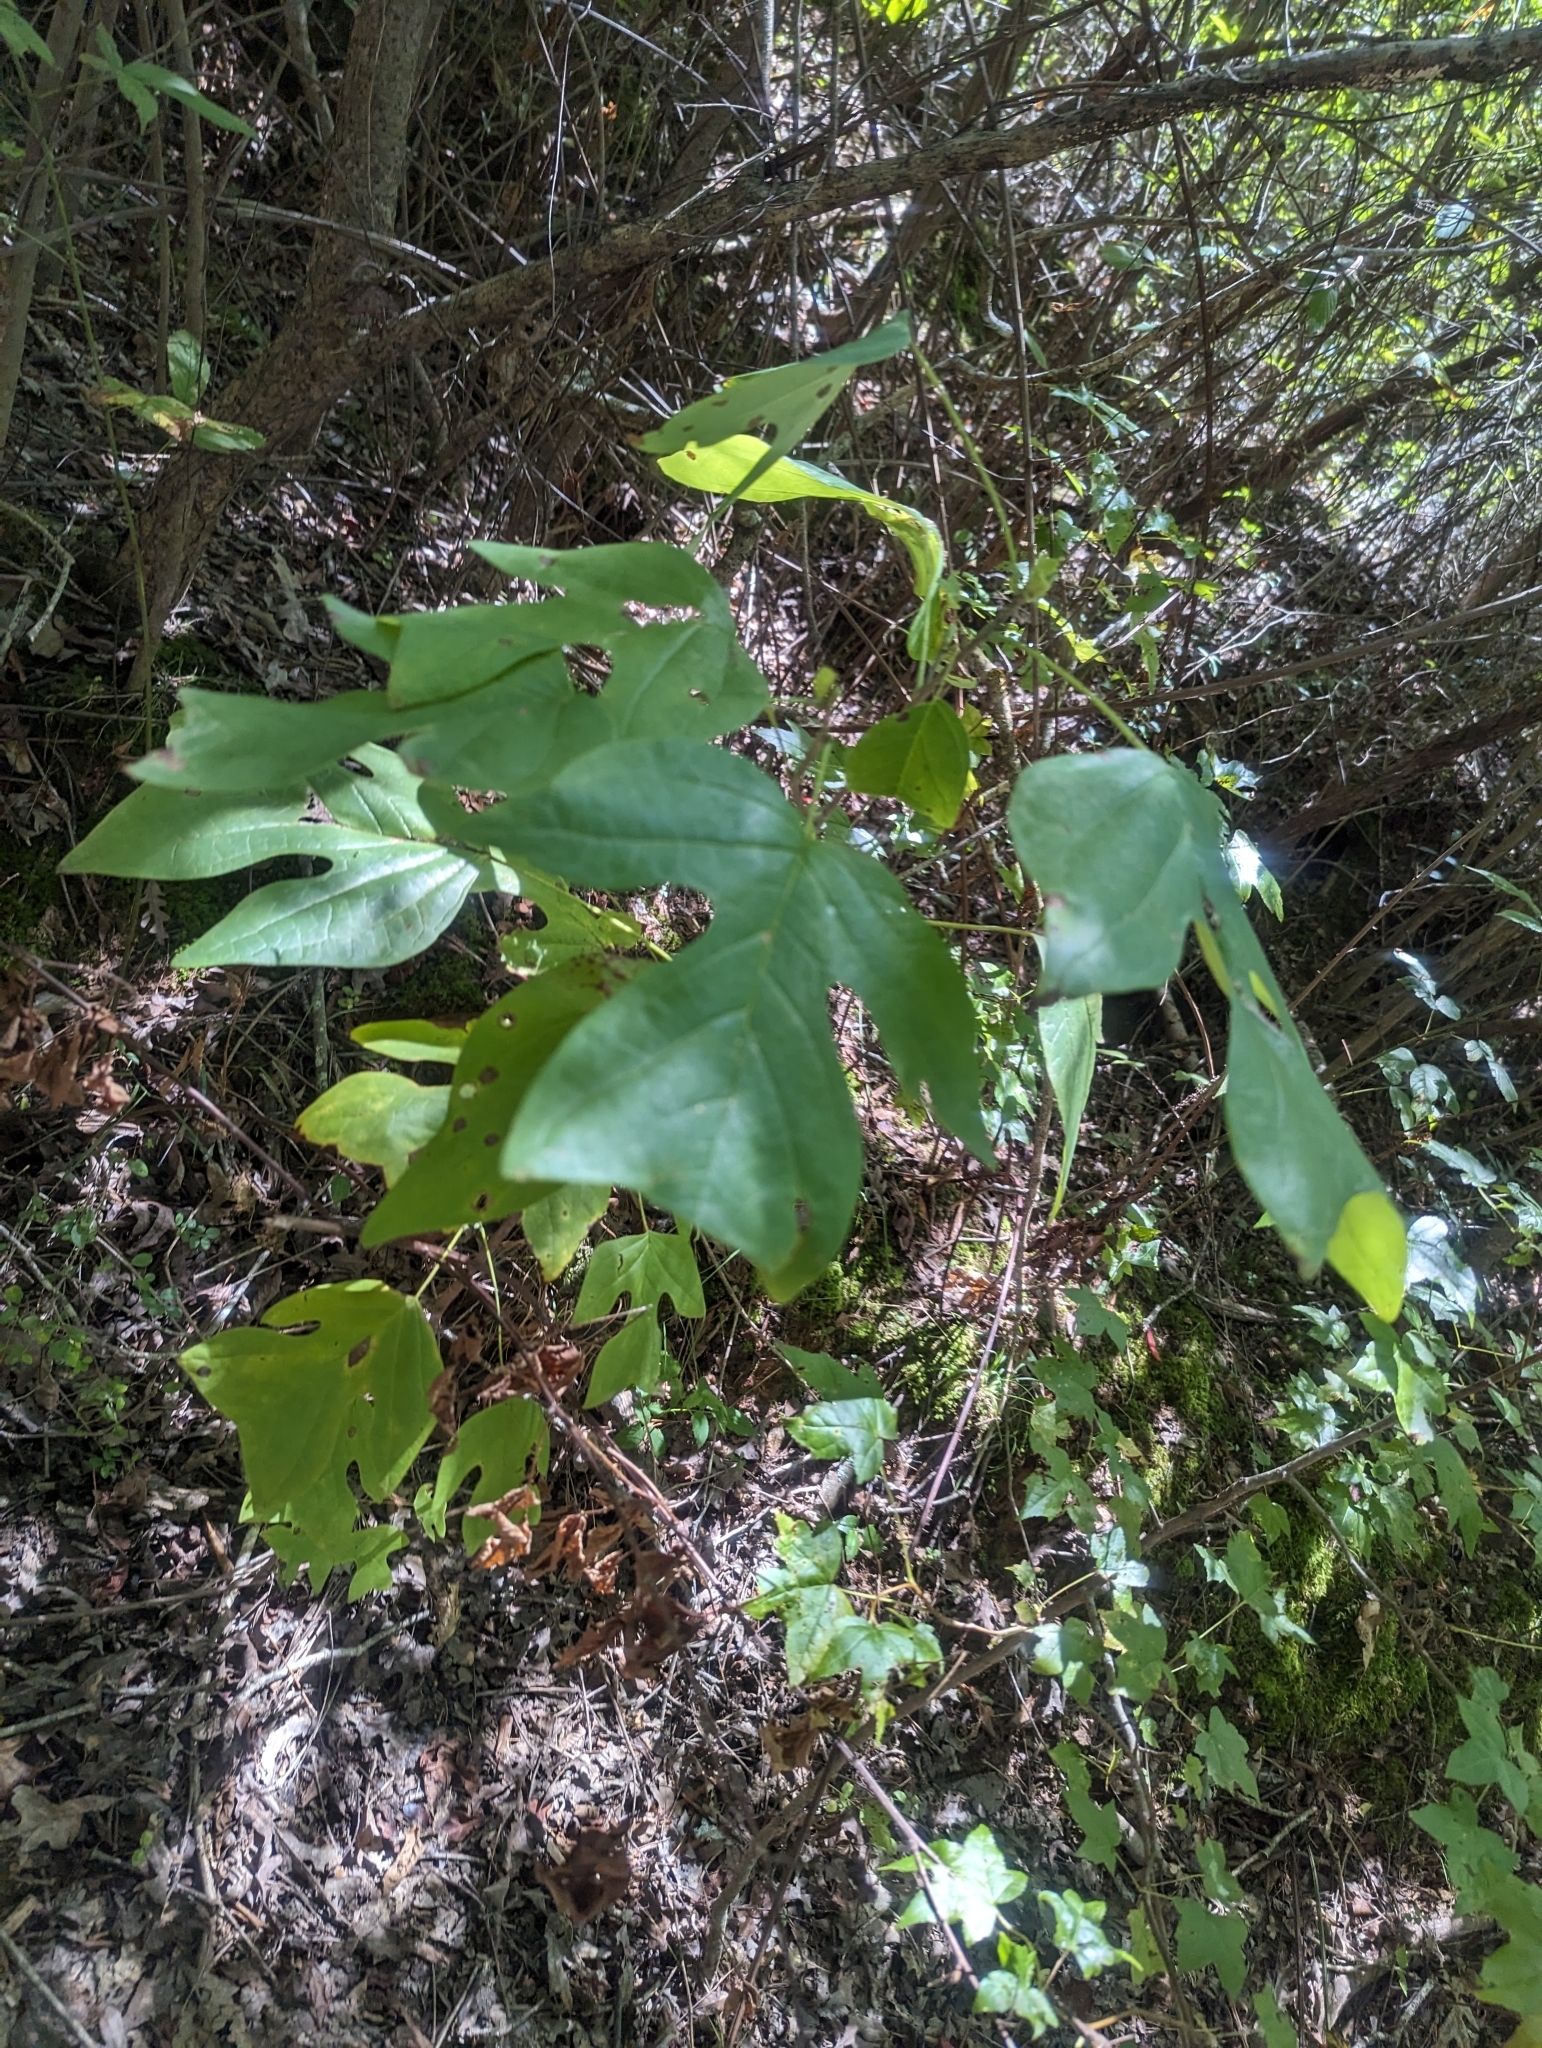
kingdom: Plantae
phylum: Tracheophyta
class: Magnoliopsida
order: Magnoliales
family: Magnoliaceae
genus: Liriodendron
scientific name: Liriodendron tulipifera
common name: Tulip tree
